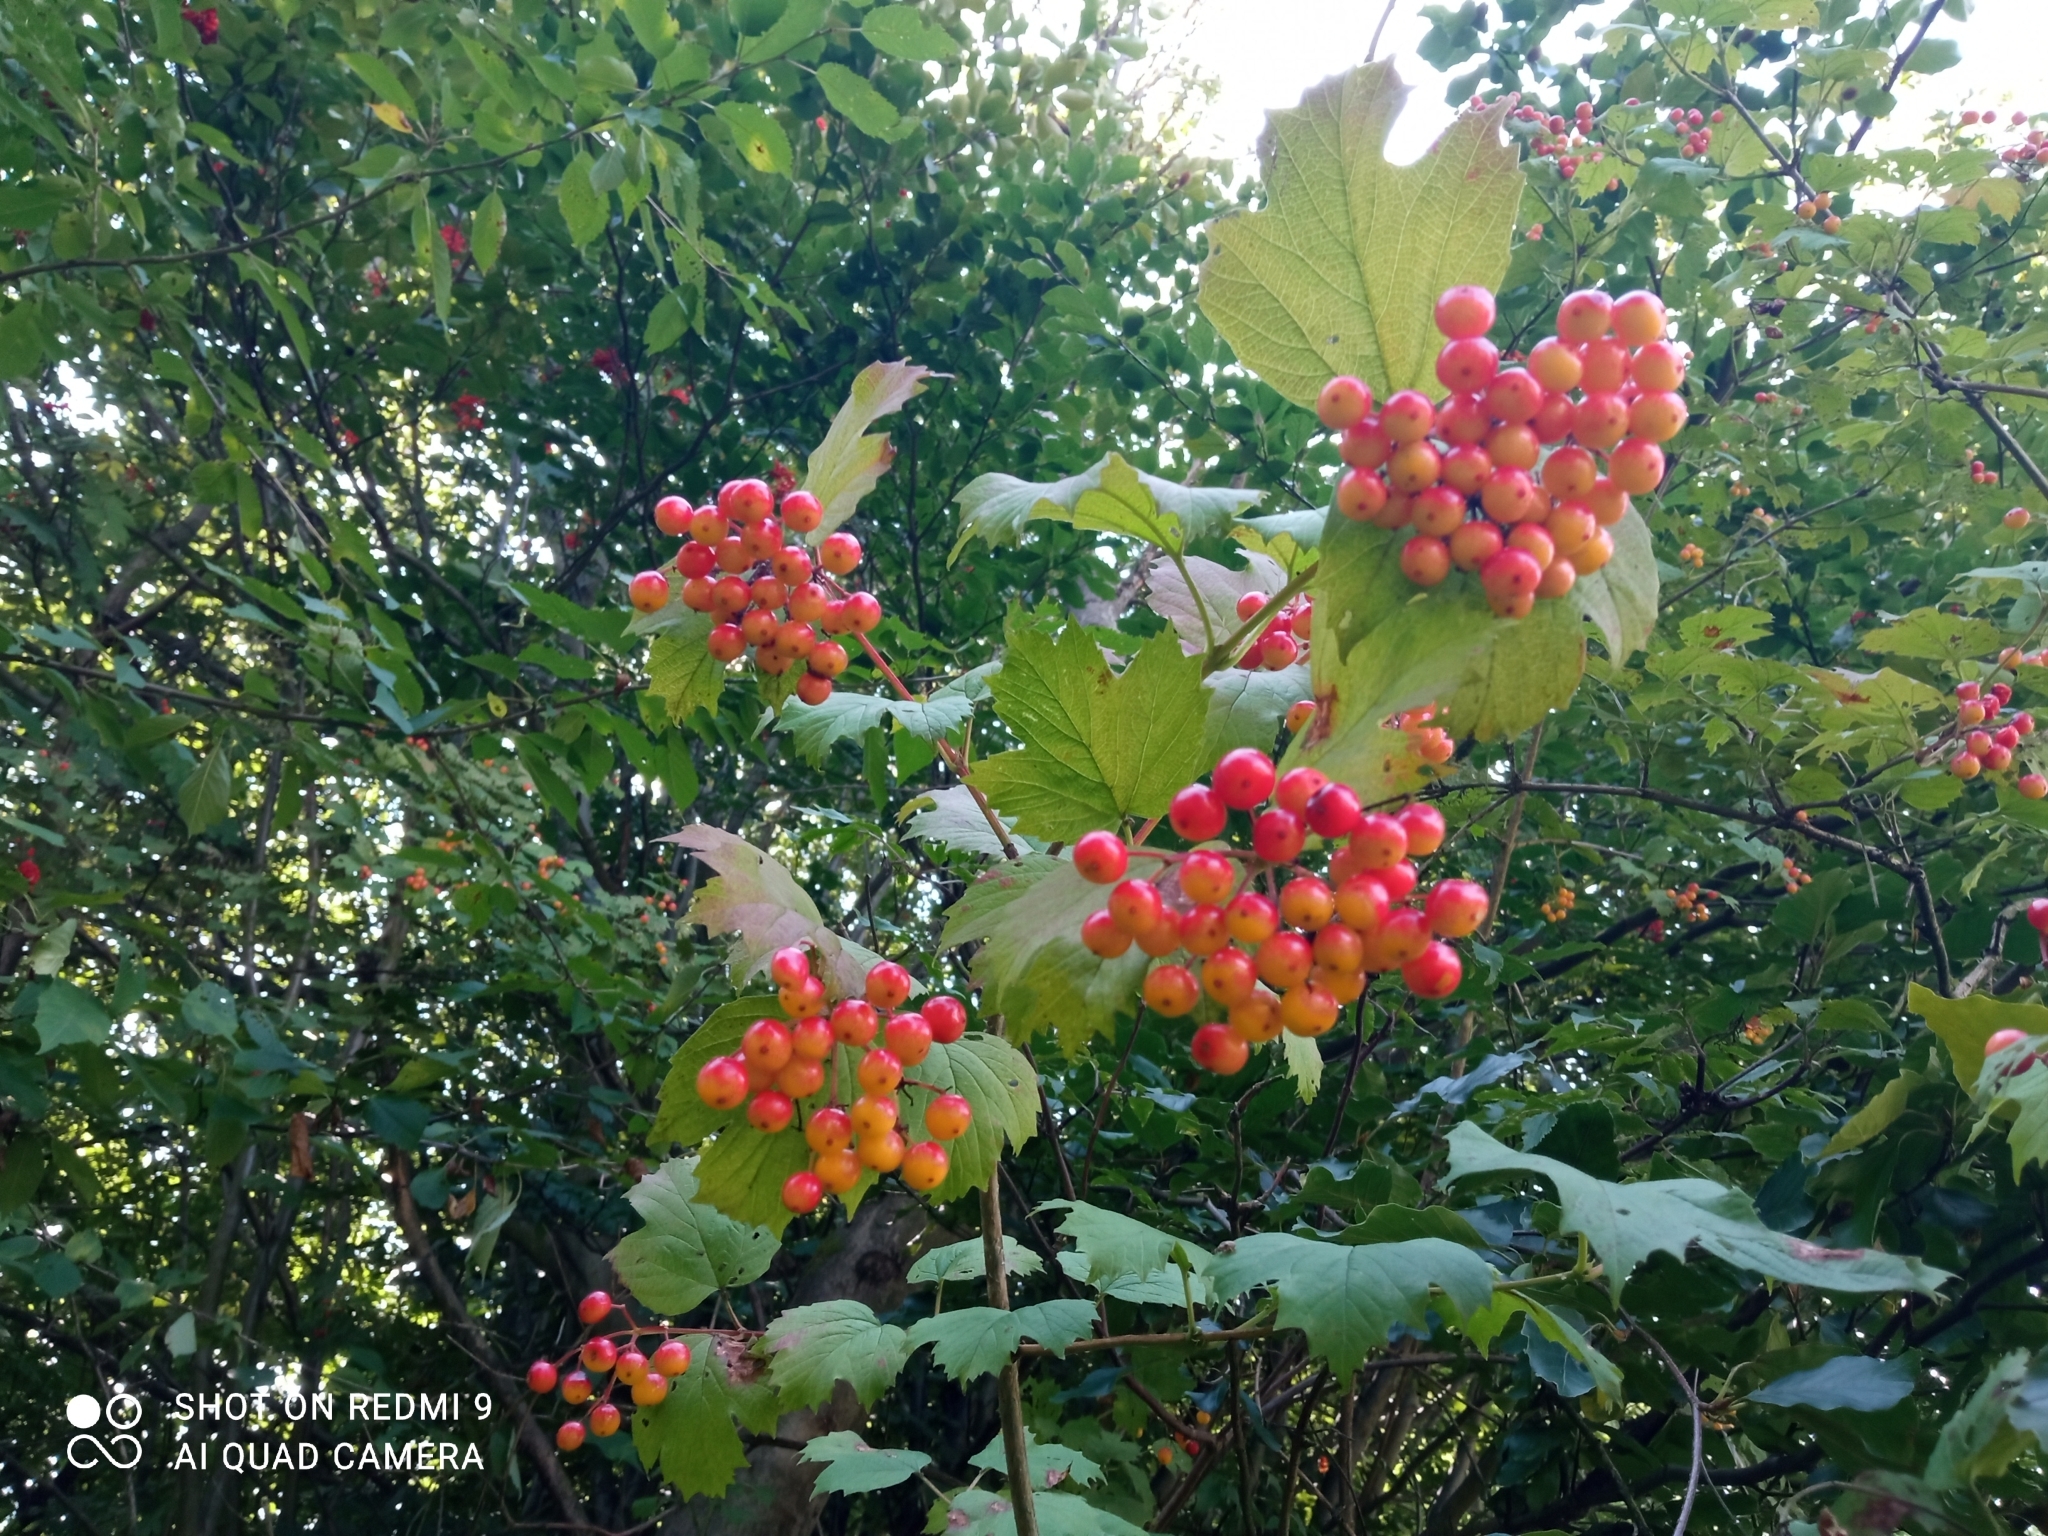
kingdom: Plantae
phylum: Tracheophyta
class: Magnoliopsida
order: Dipsacales
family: Viburnaceae
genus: Viburnum
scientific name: Viburnum opulus
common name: Guelder-rose
